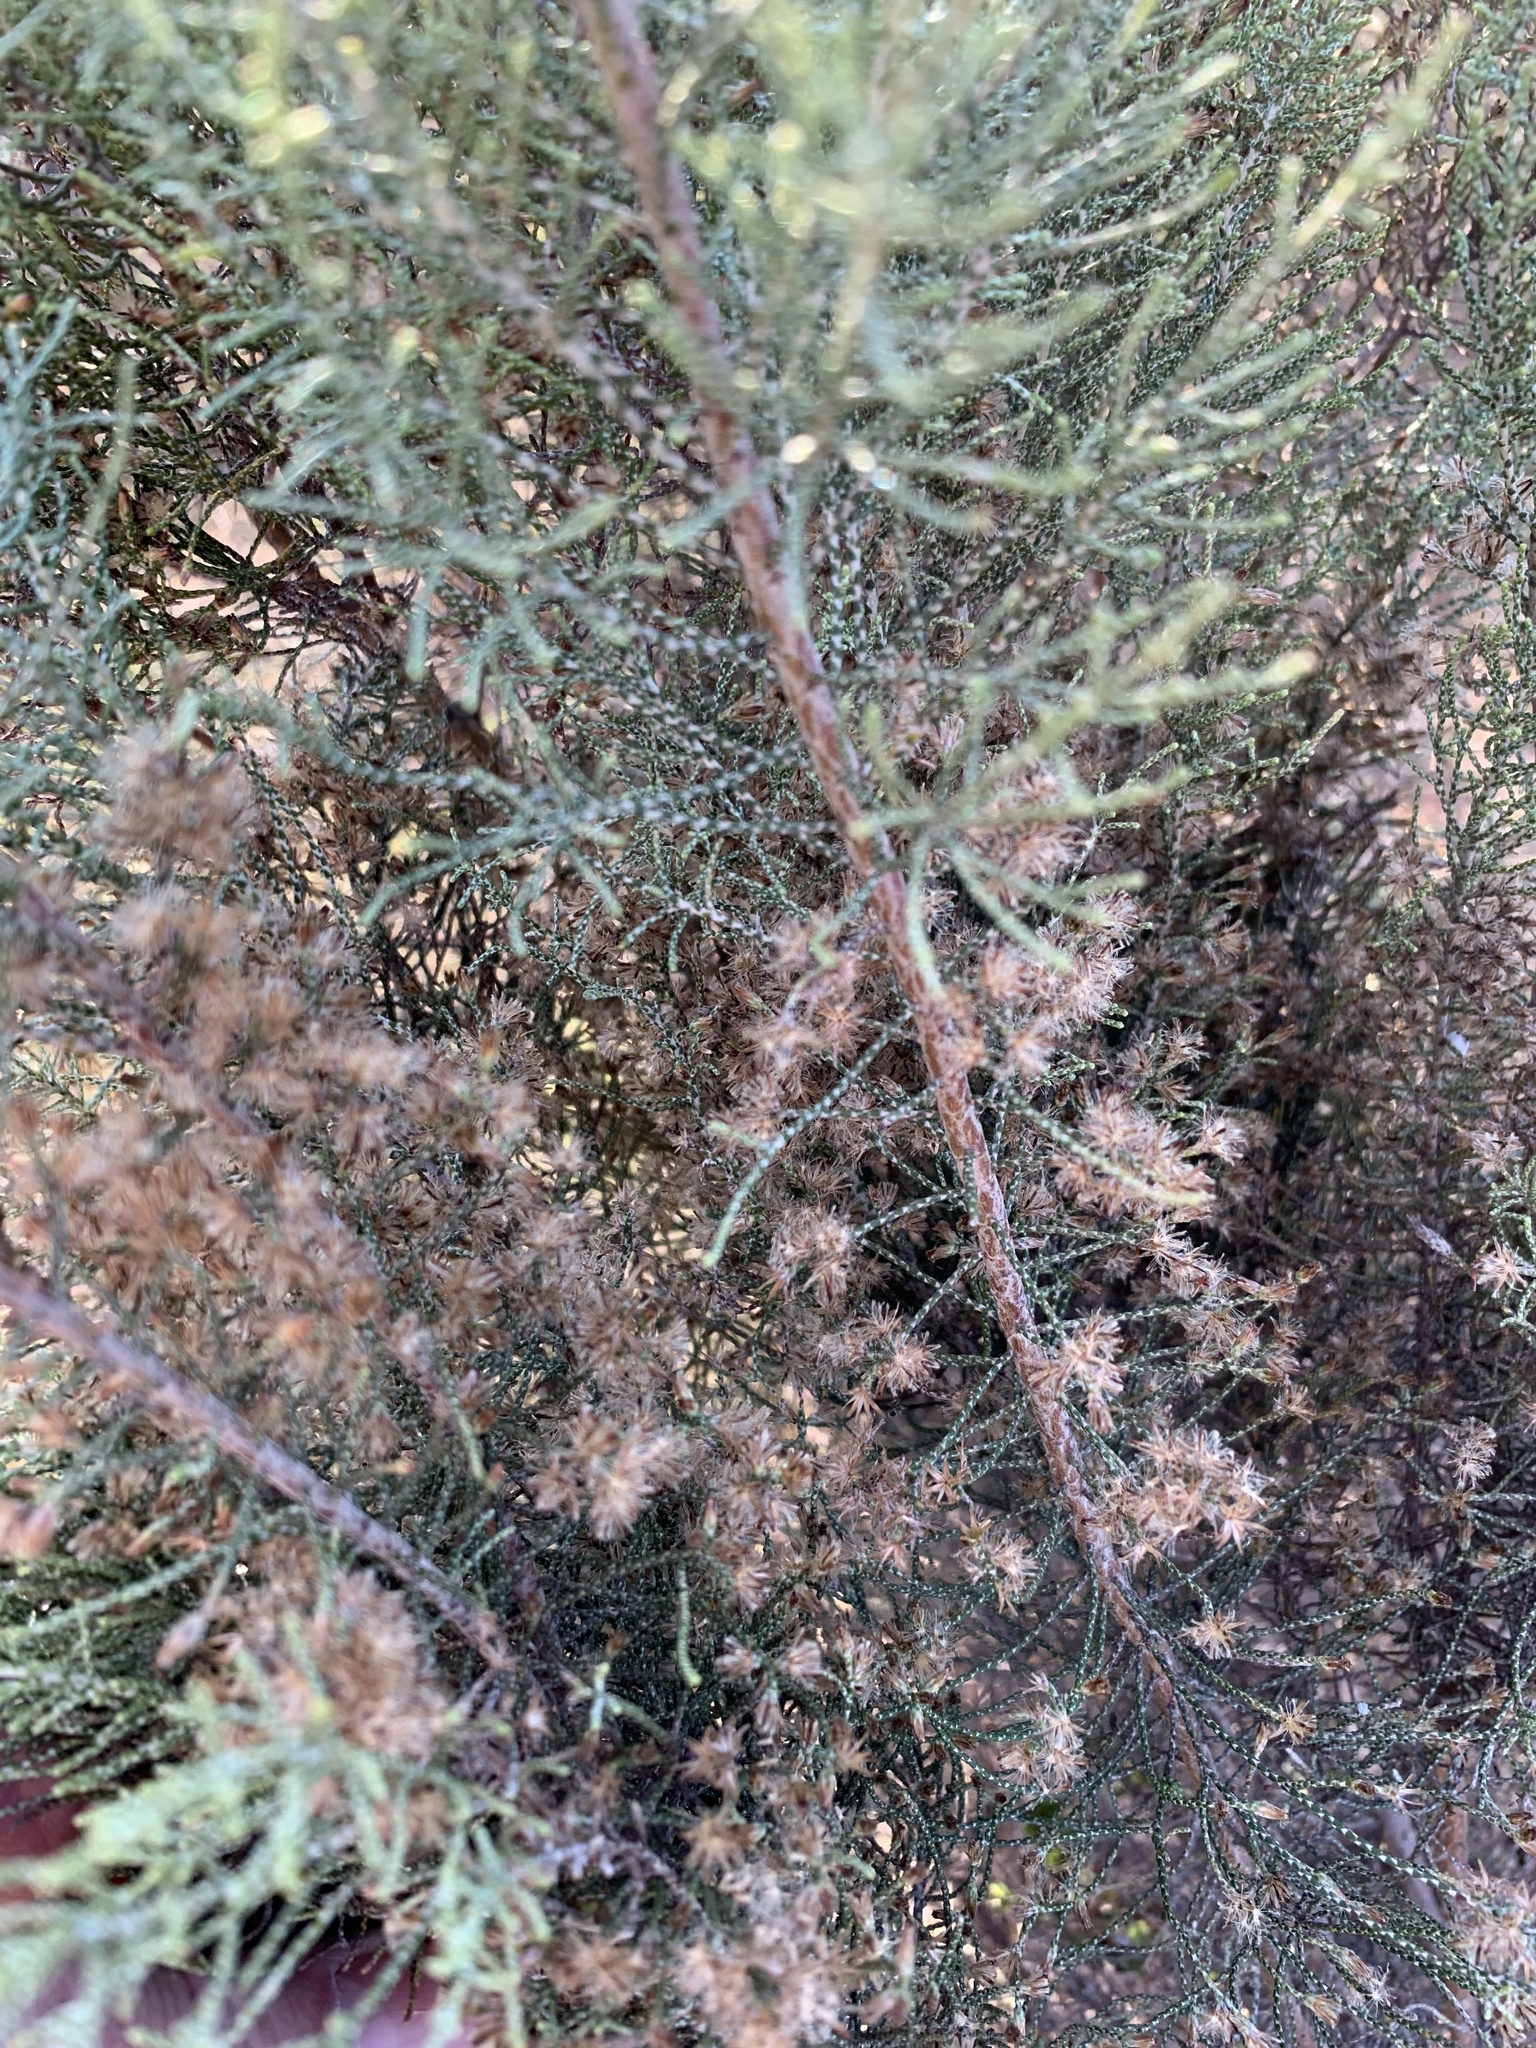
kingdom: Plantae
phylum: Tracheophyta
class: Magnoliopsida
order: Asterales
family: Asteraceae
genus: Dicerothamnus
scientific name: Dicerothamnus rhinocerotis
